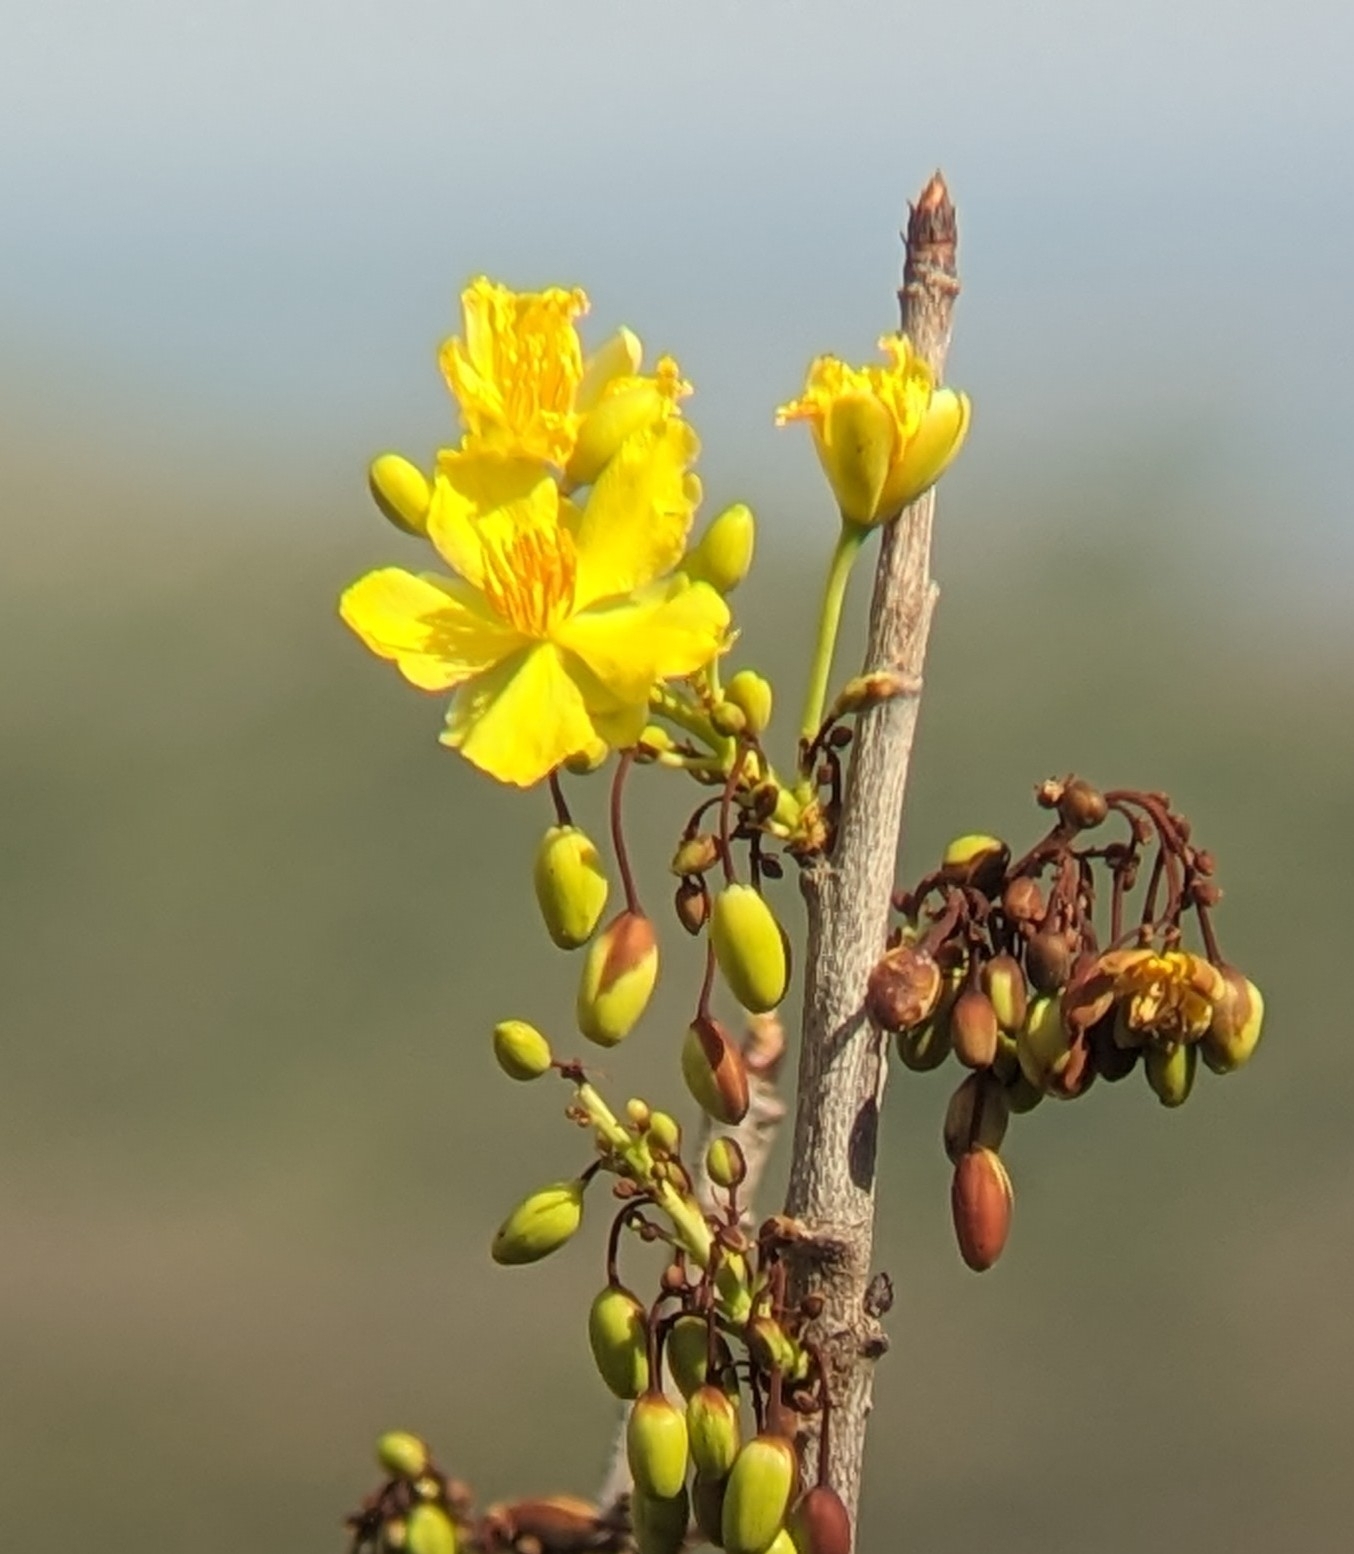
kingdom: Plantae
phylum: Tracheophyta
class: Magnoliopsida
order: Malvales
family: Cochlospermaceae
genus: Cochlospermum
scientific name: Cochlospermum religiosum
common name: Cottontree
